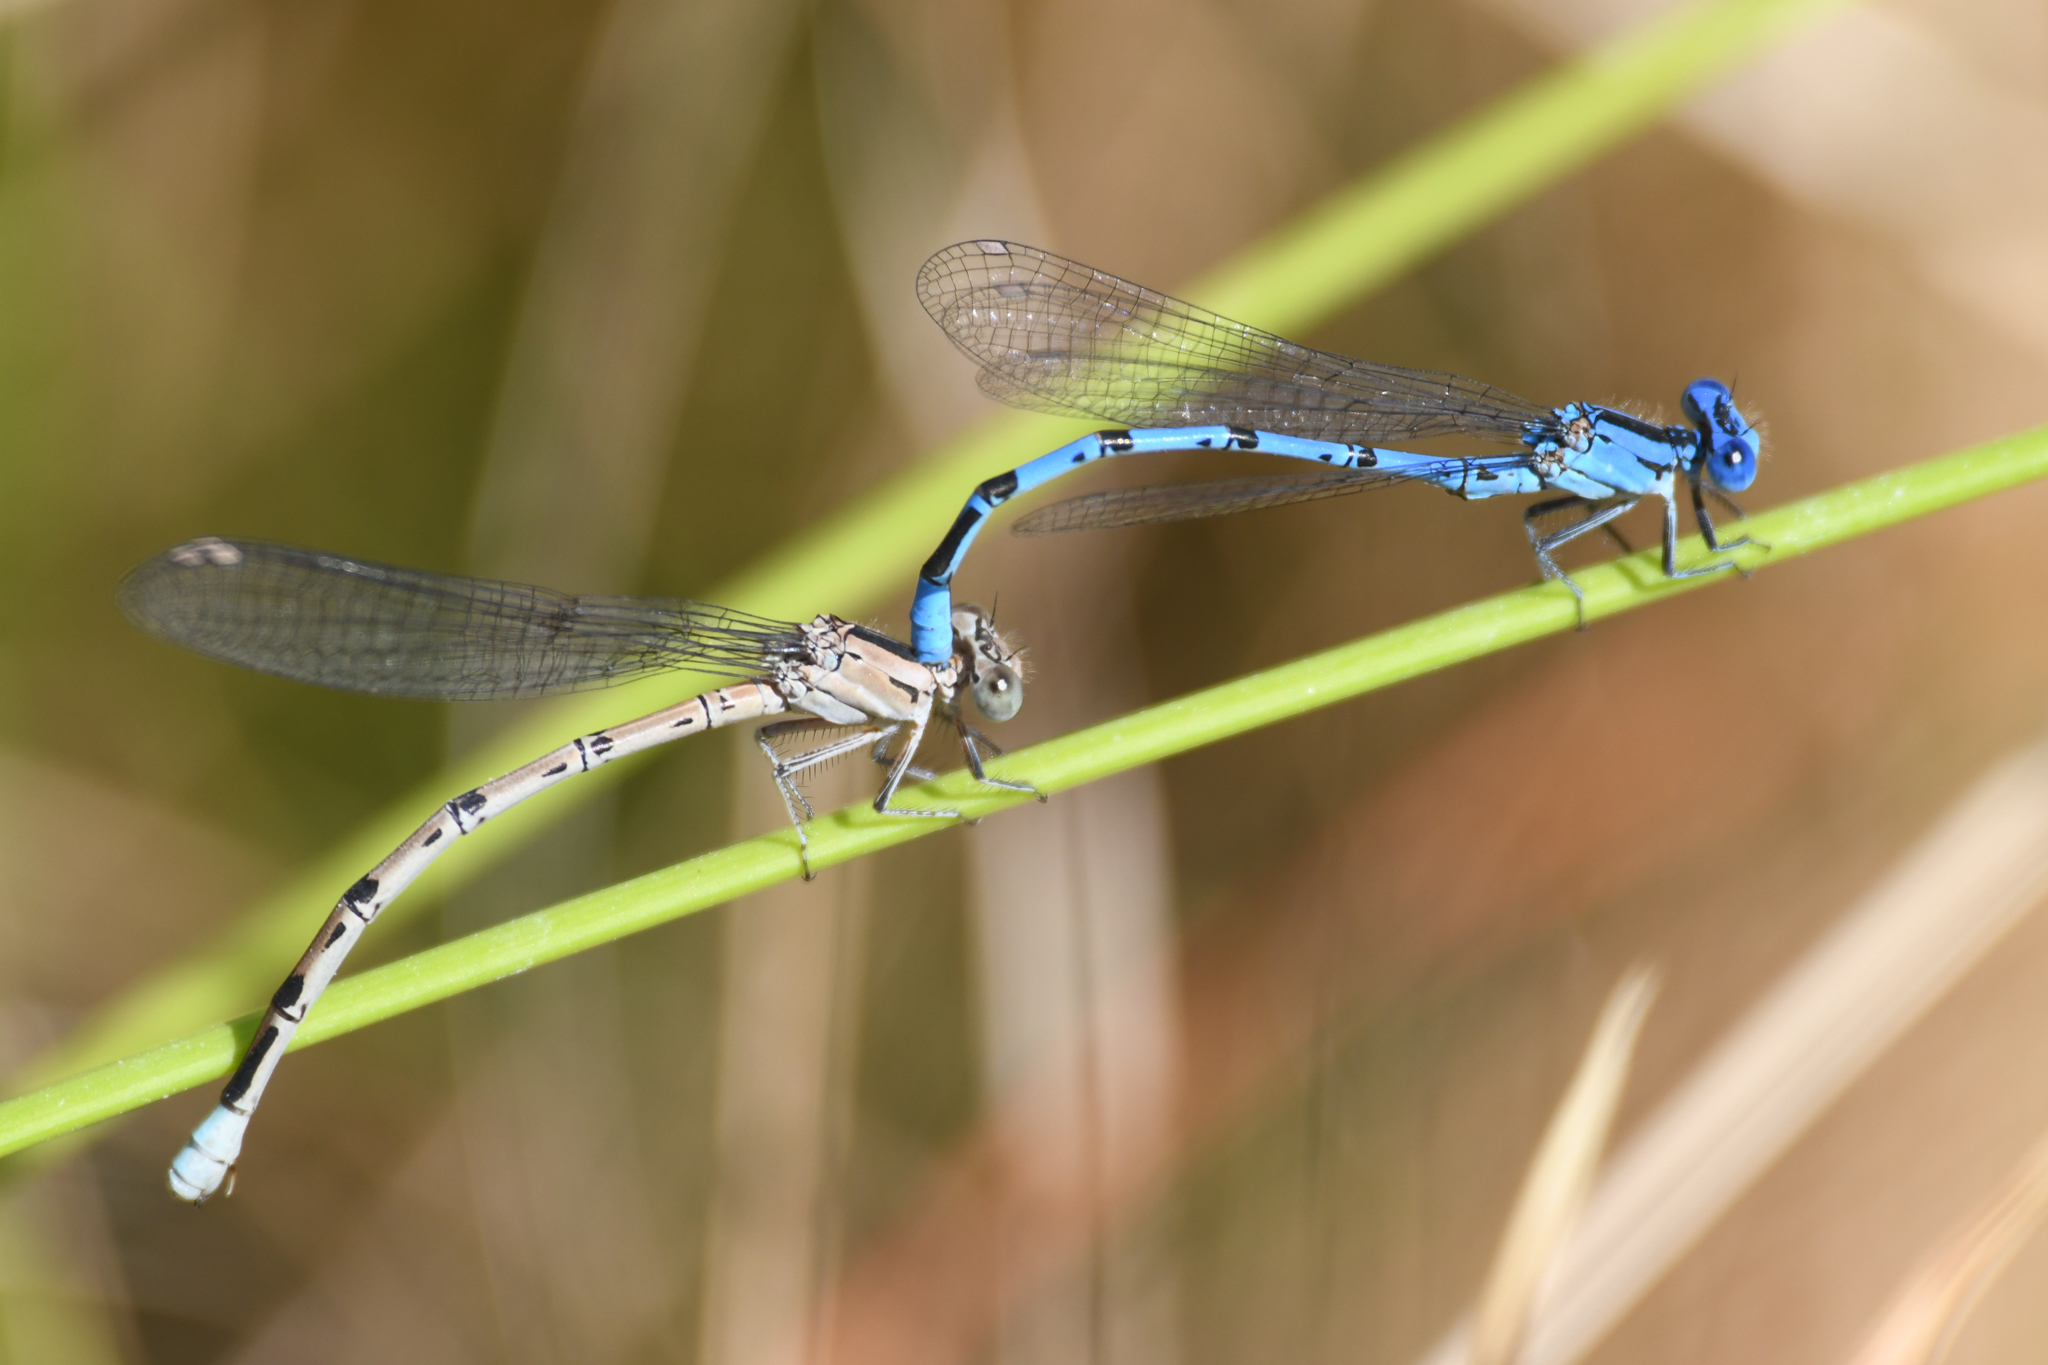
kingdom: Animalia
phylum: Arthropoda
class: Insecta
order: Odonata
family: Coenagrionidae
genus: Argia
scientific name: Argia vivida
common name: Vivid dancer
